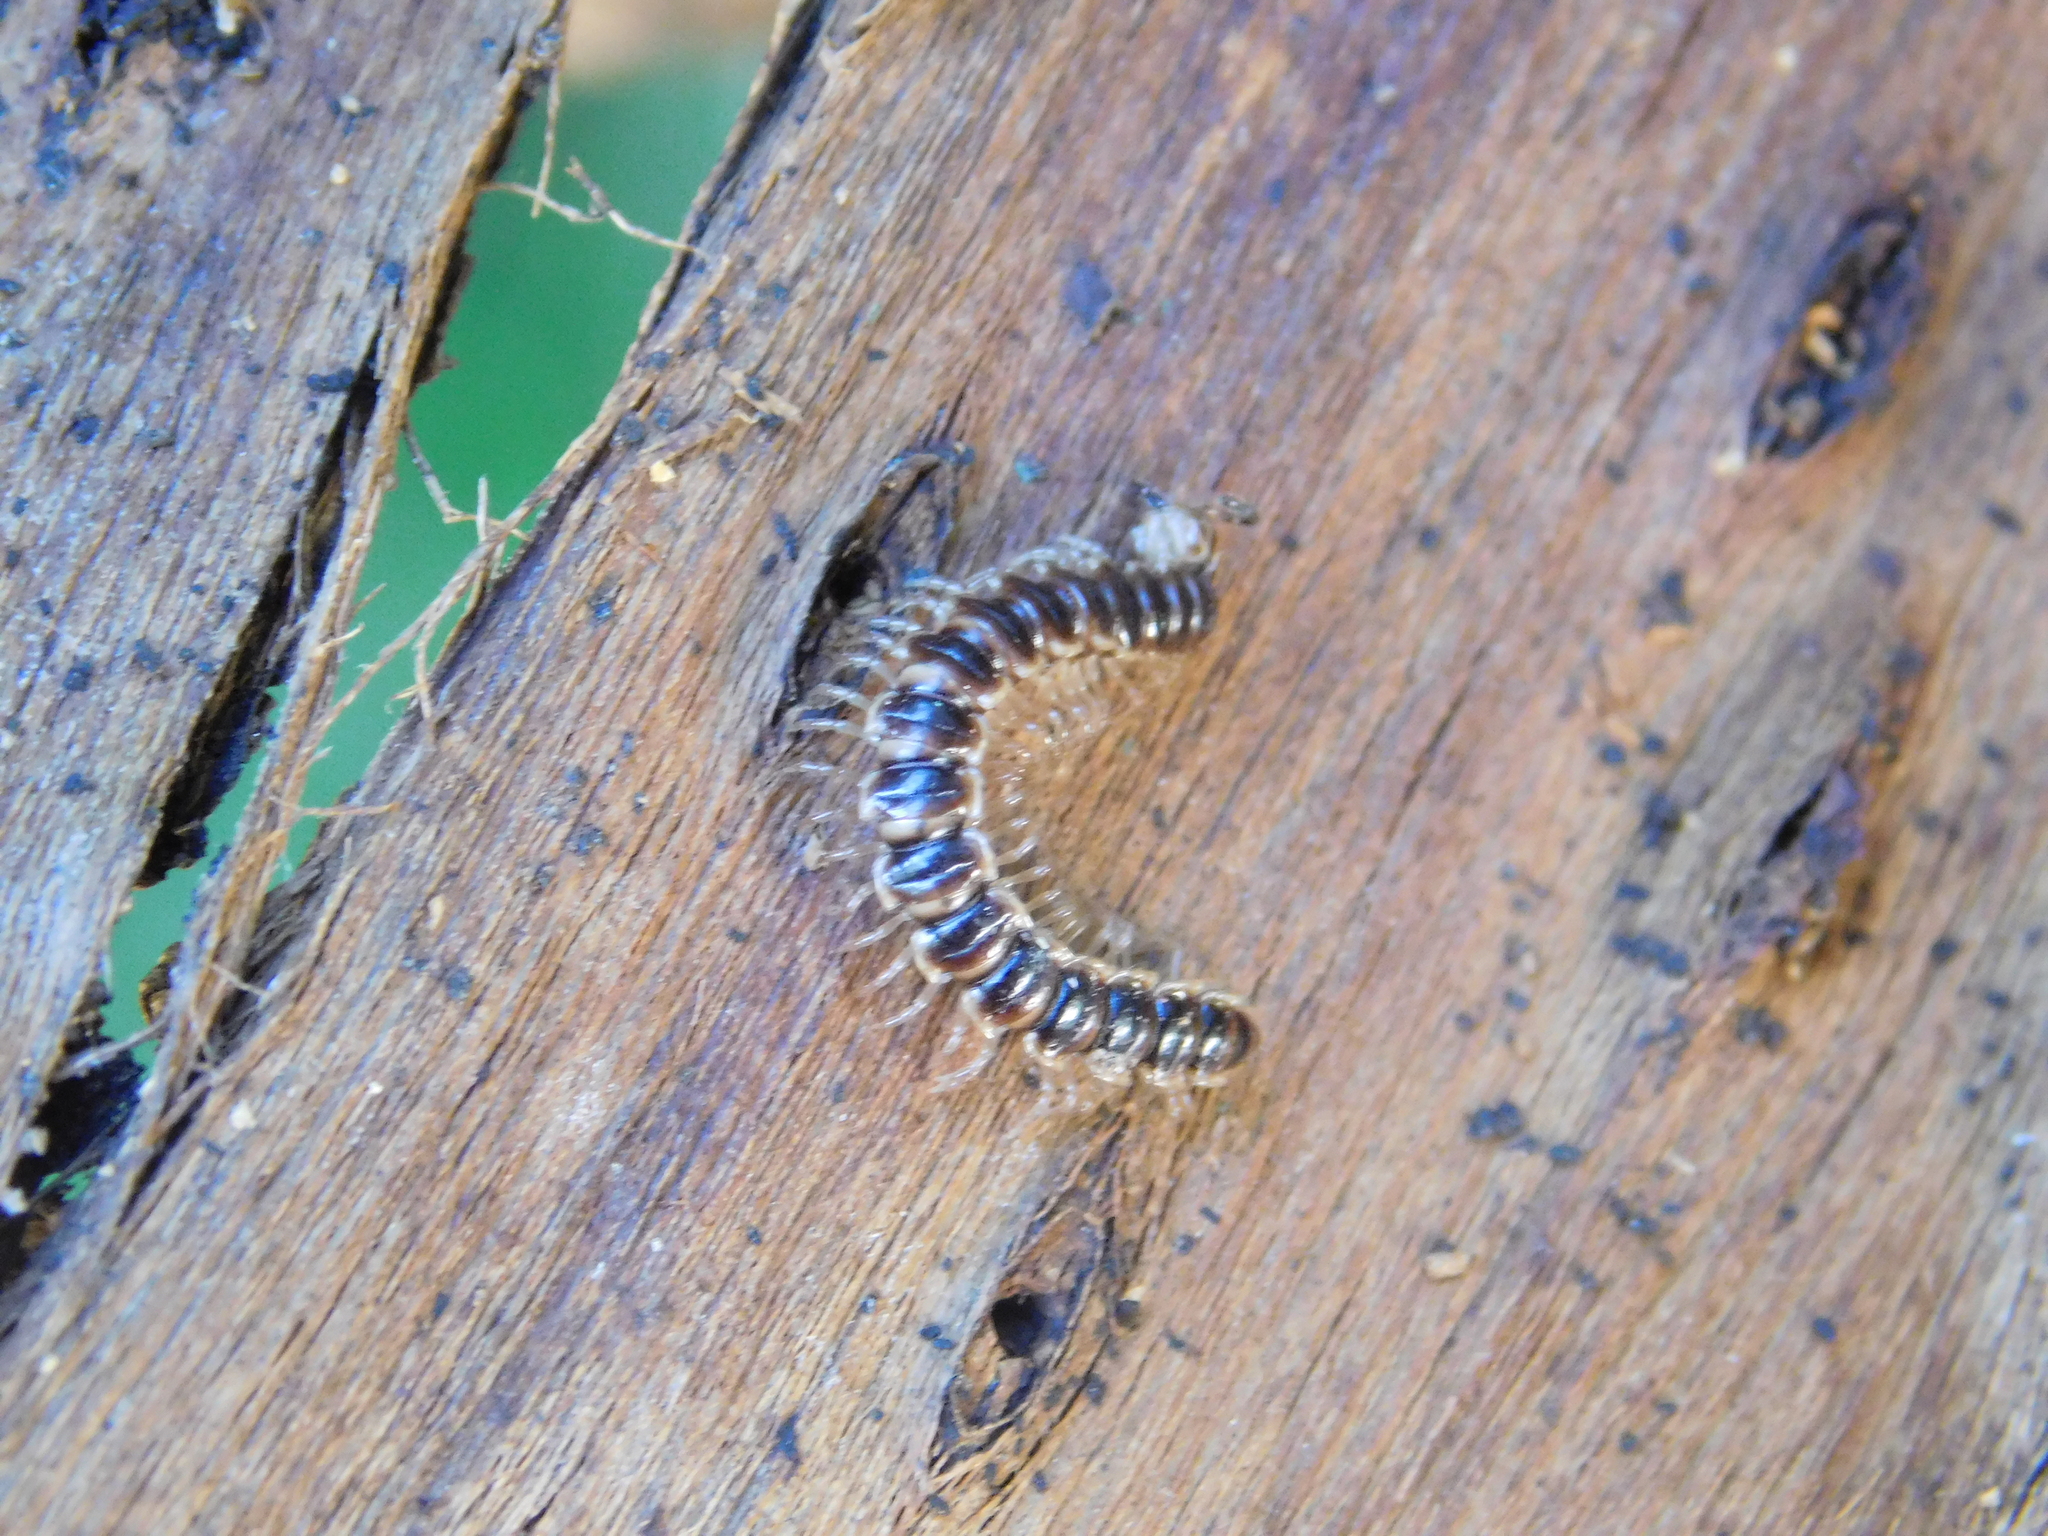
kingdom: Animalia
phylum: Arthropoda
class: Diplopoda
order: Polydesmida
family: Paradoxosomatidae
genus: Oxidus
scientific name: Oxidus gracilis
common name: Greenhouse millipede
